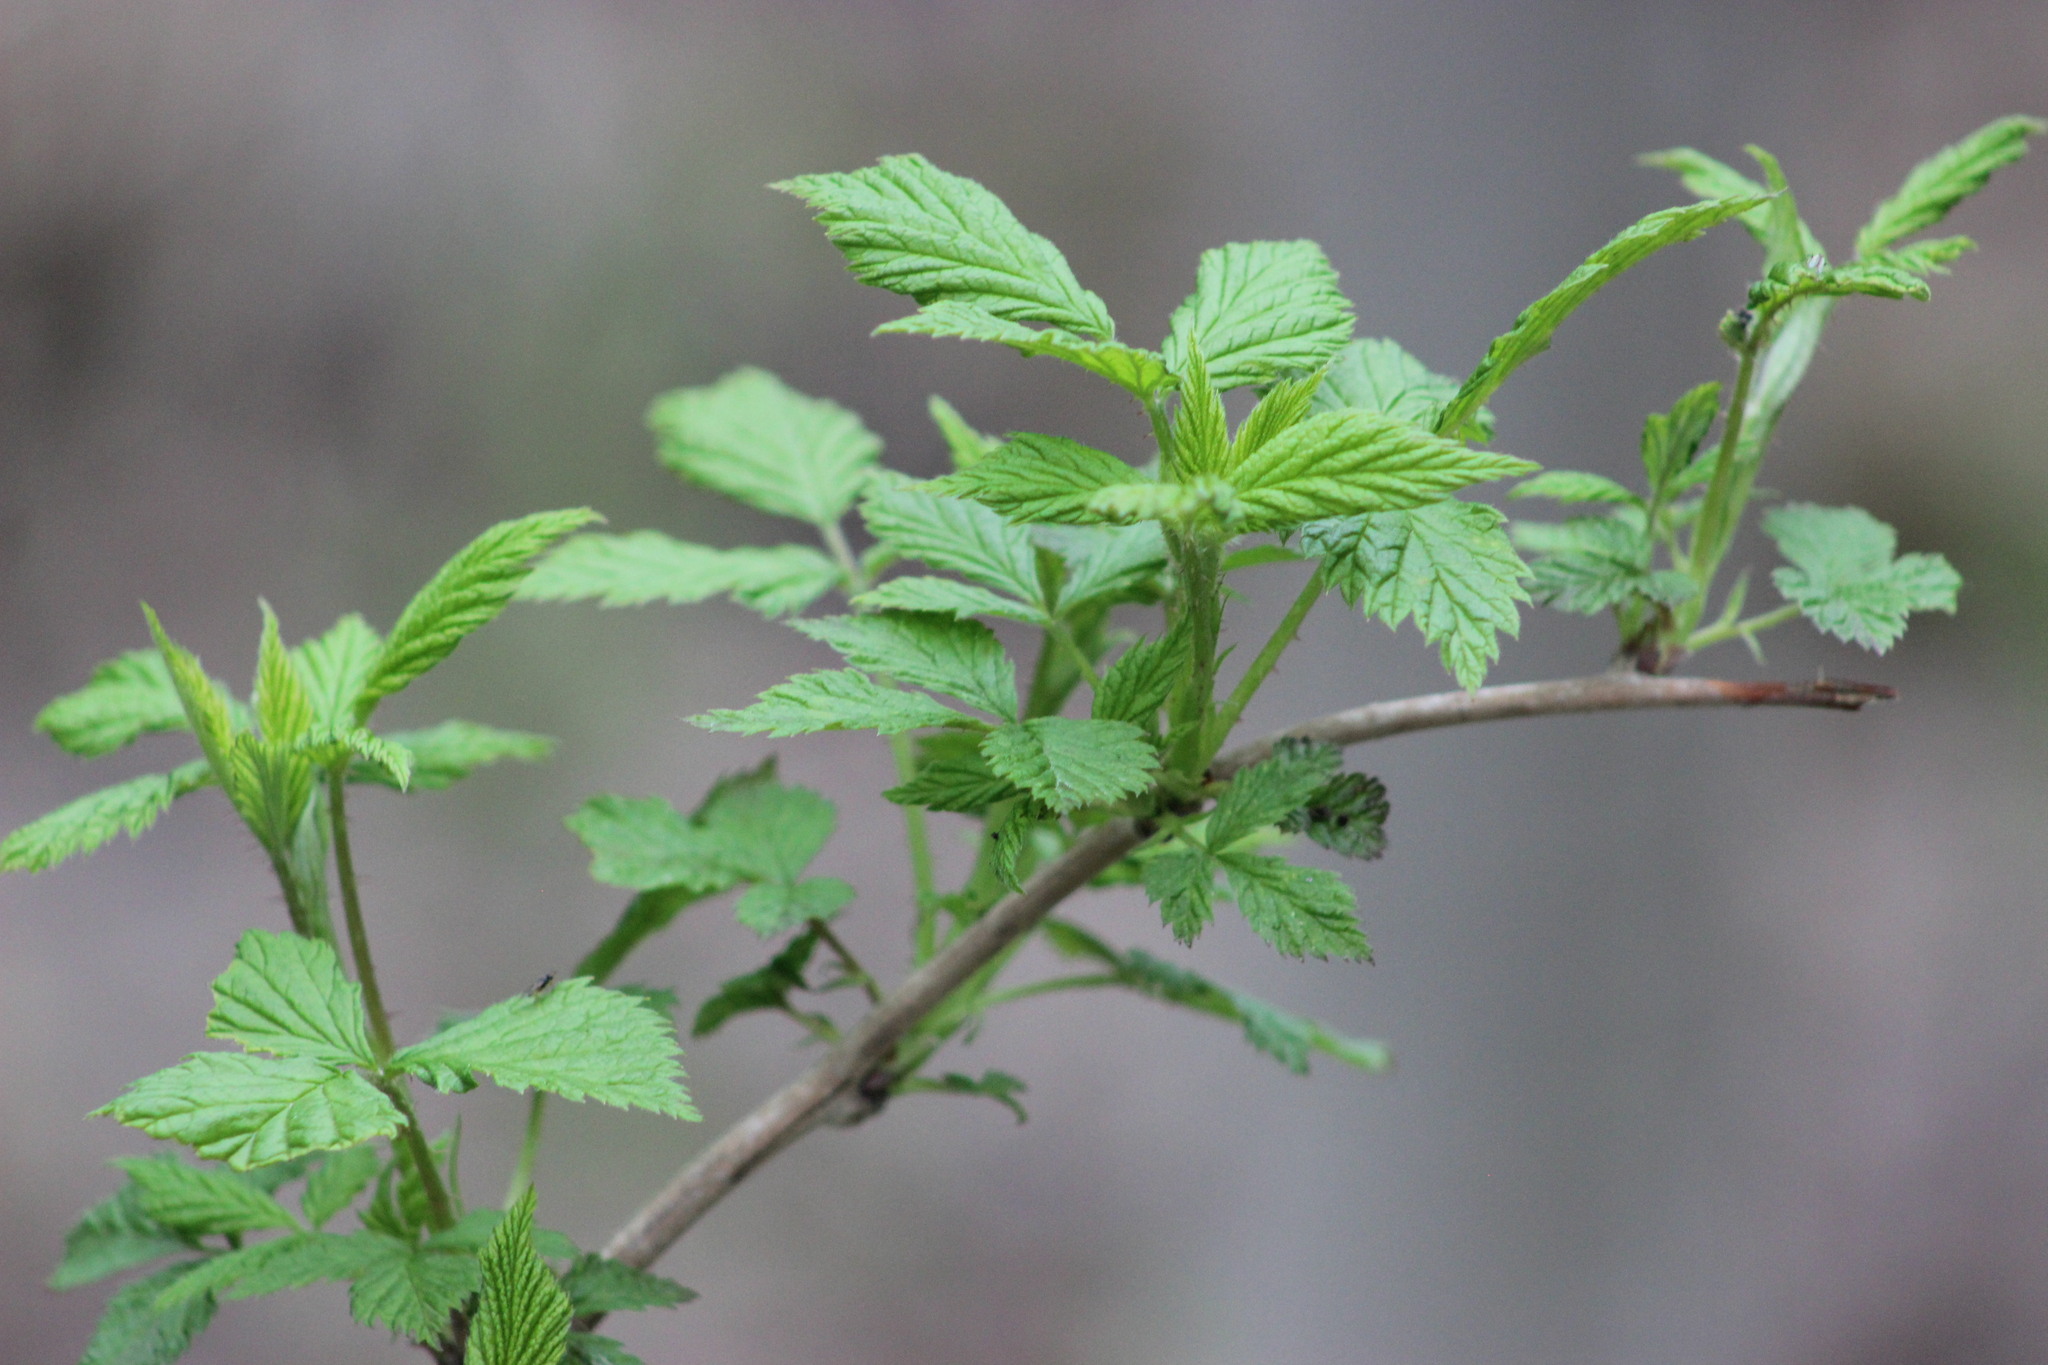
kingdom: Plantae
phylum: Tracheophyta
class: Magnoliopsida
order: Rosales
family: Rosaceae
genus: Rubus
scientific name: Rubus idaeus
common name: Raspberry
